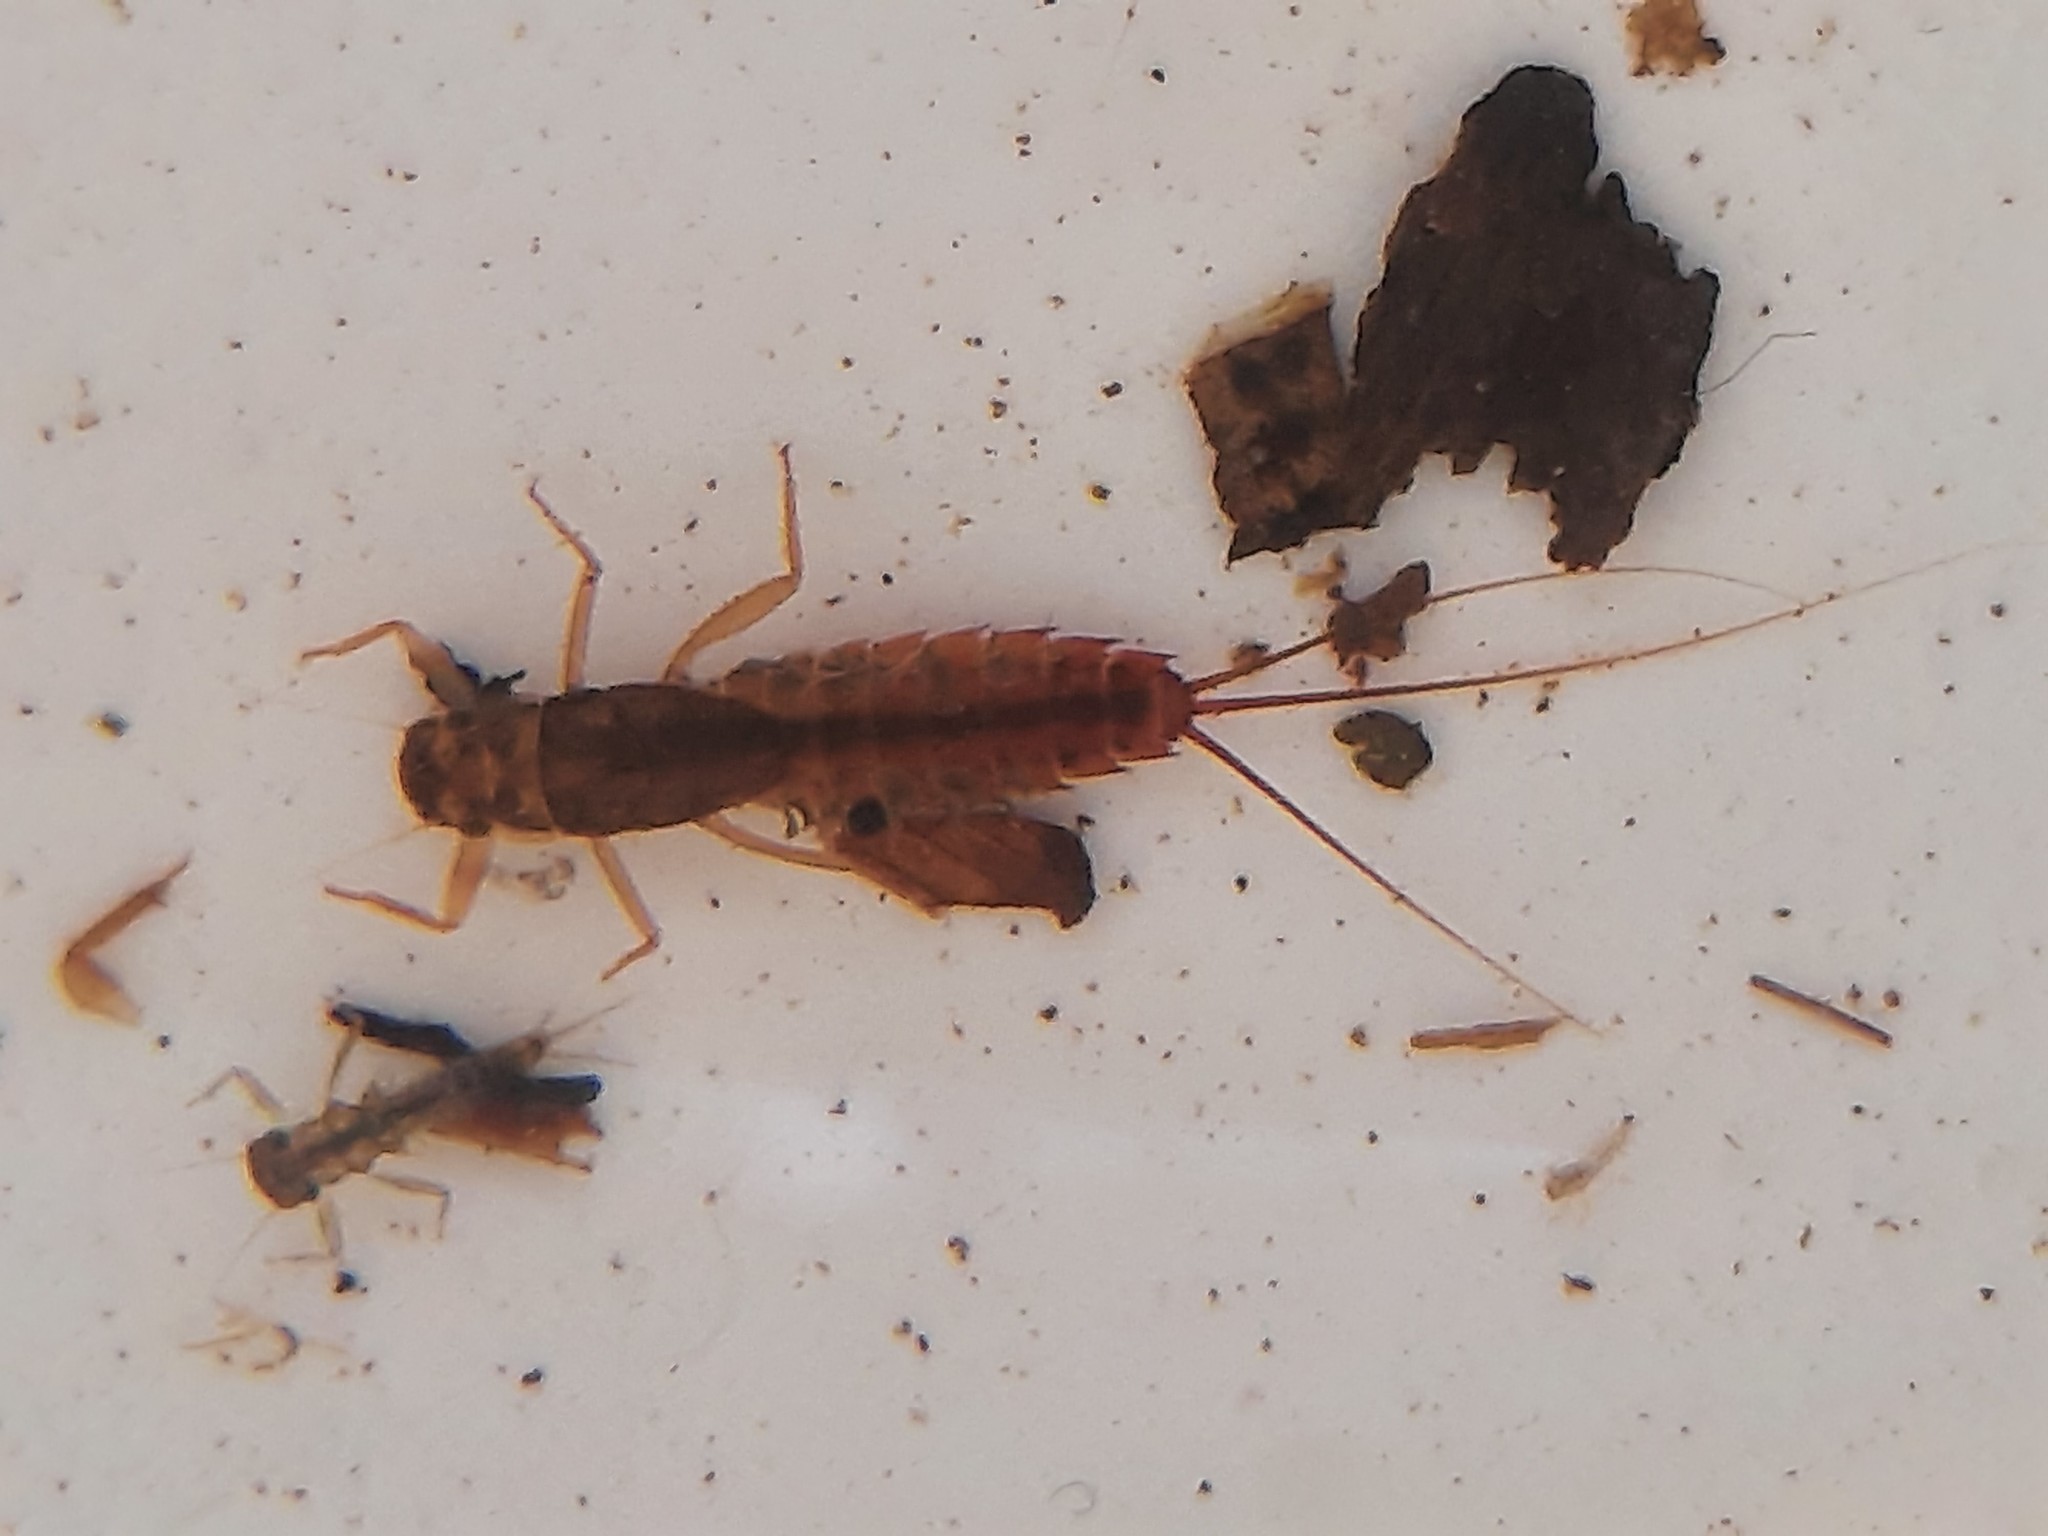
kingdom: Animalia
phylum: Arthropoda
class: Insecta
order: Ephemeroptera
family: Leptophlebiidae
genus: Acanthophlebia
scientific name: Acanthophlebia cruentata
